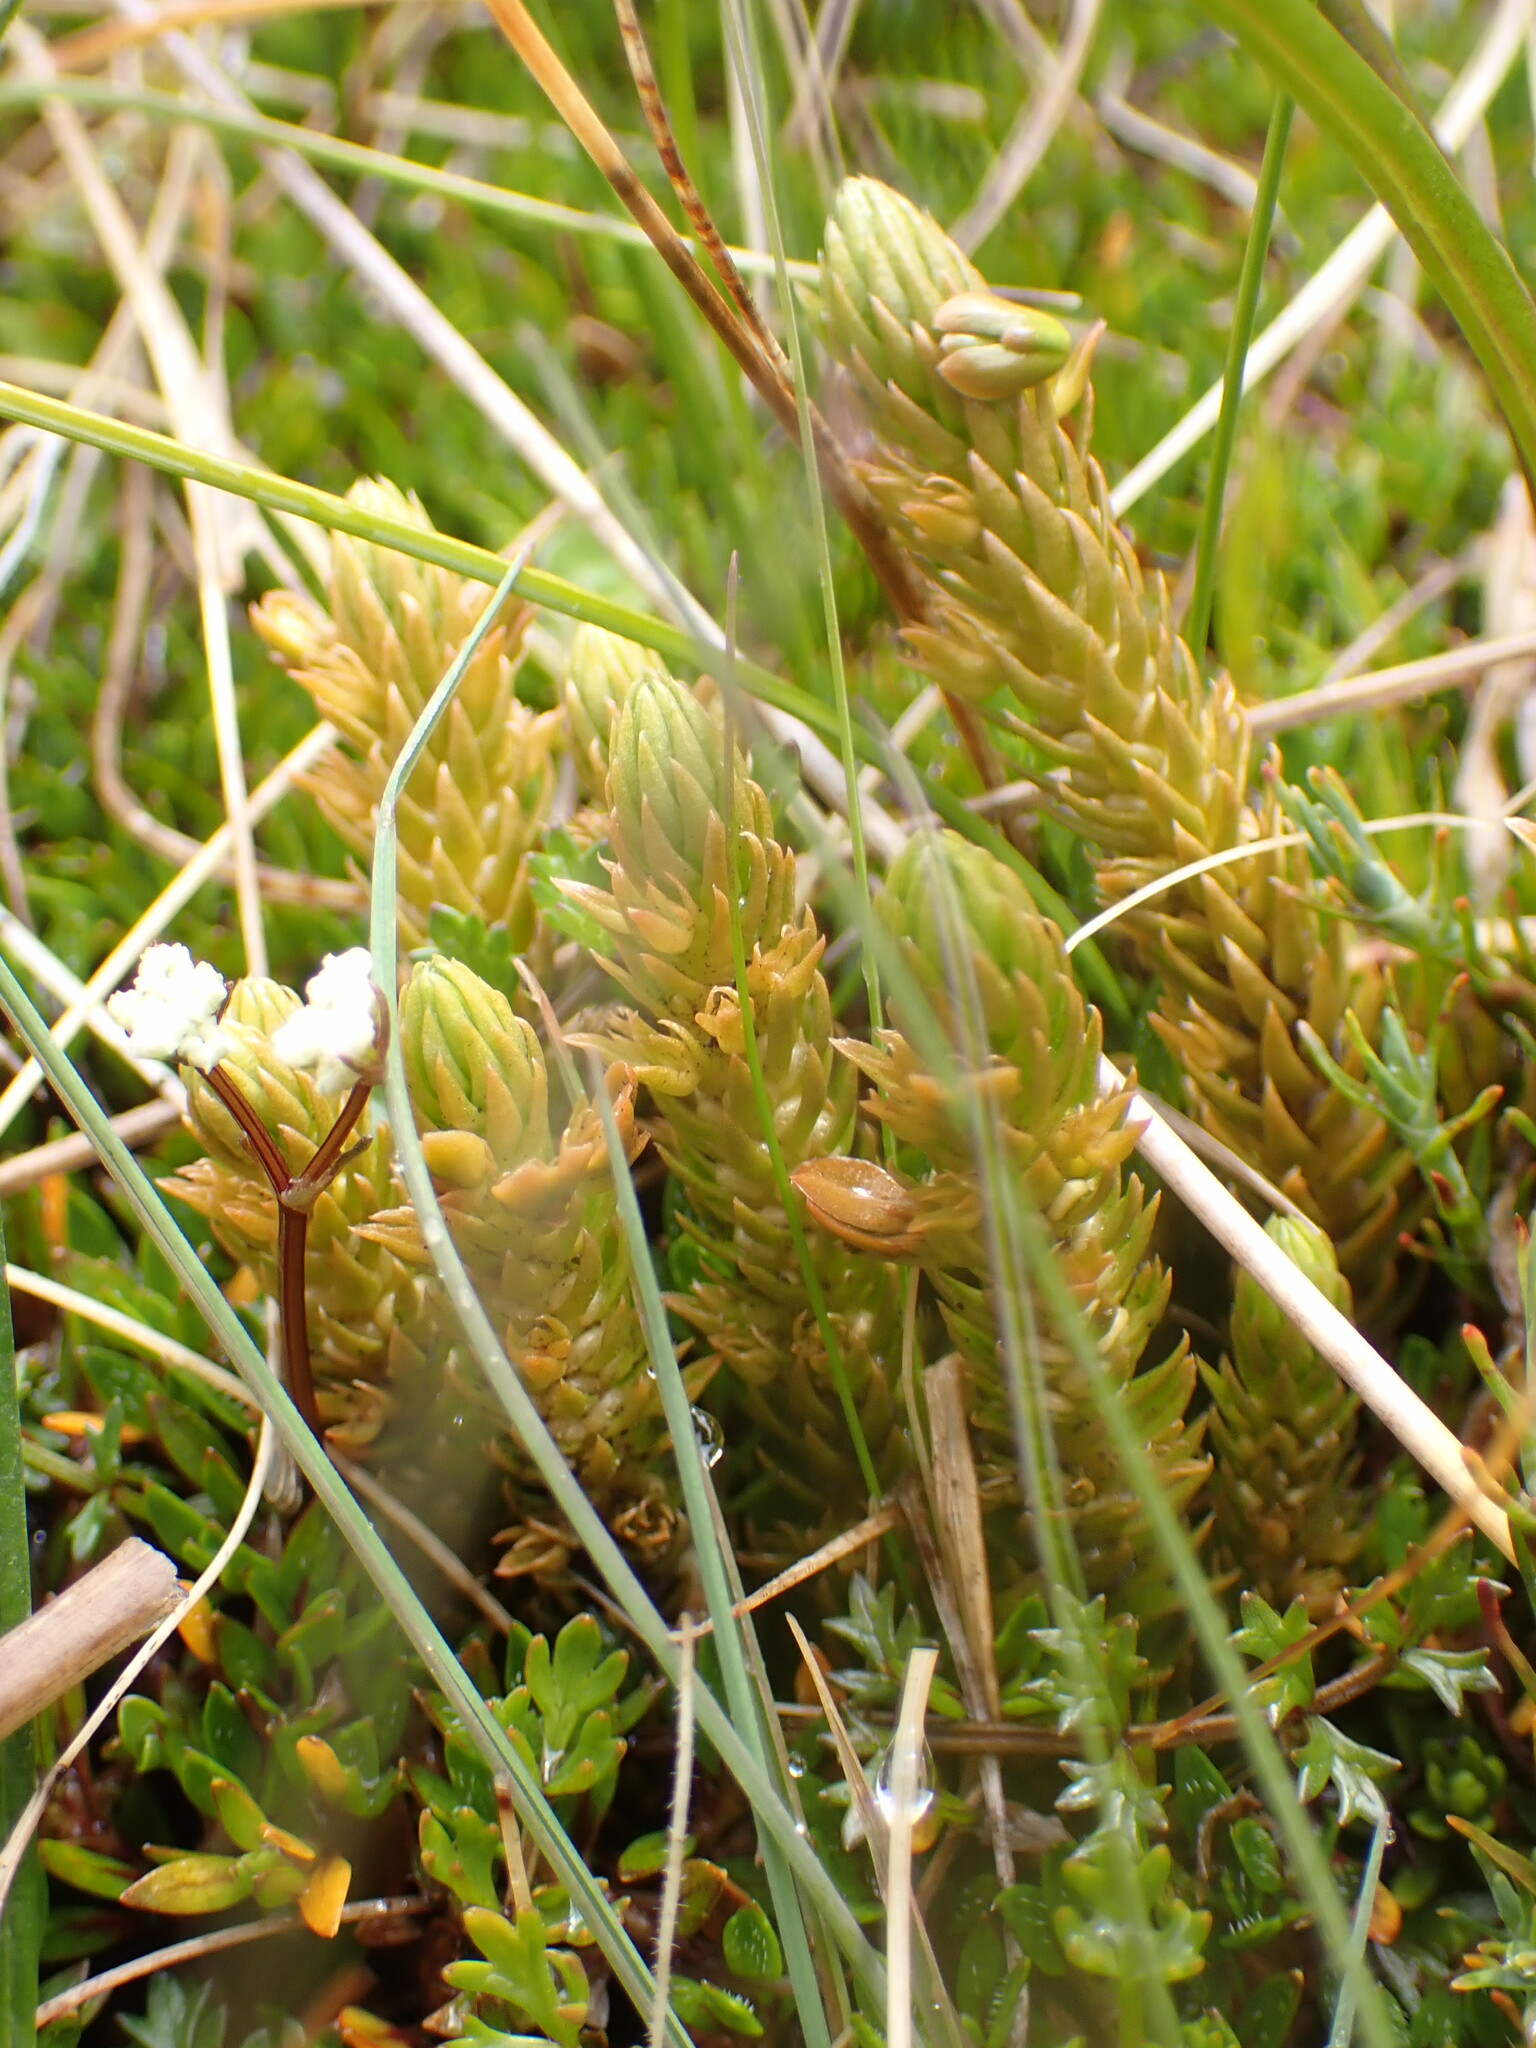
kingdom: Plantae
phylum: Tracheophyta
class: Lycopodiopsida
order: Lycopodiales
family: Lycopodiaceae
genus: Huperzia
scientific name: Huperzia australiana
